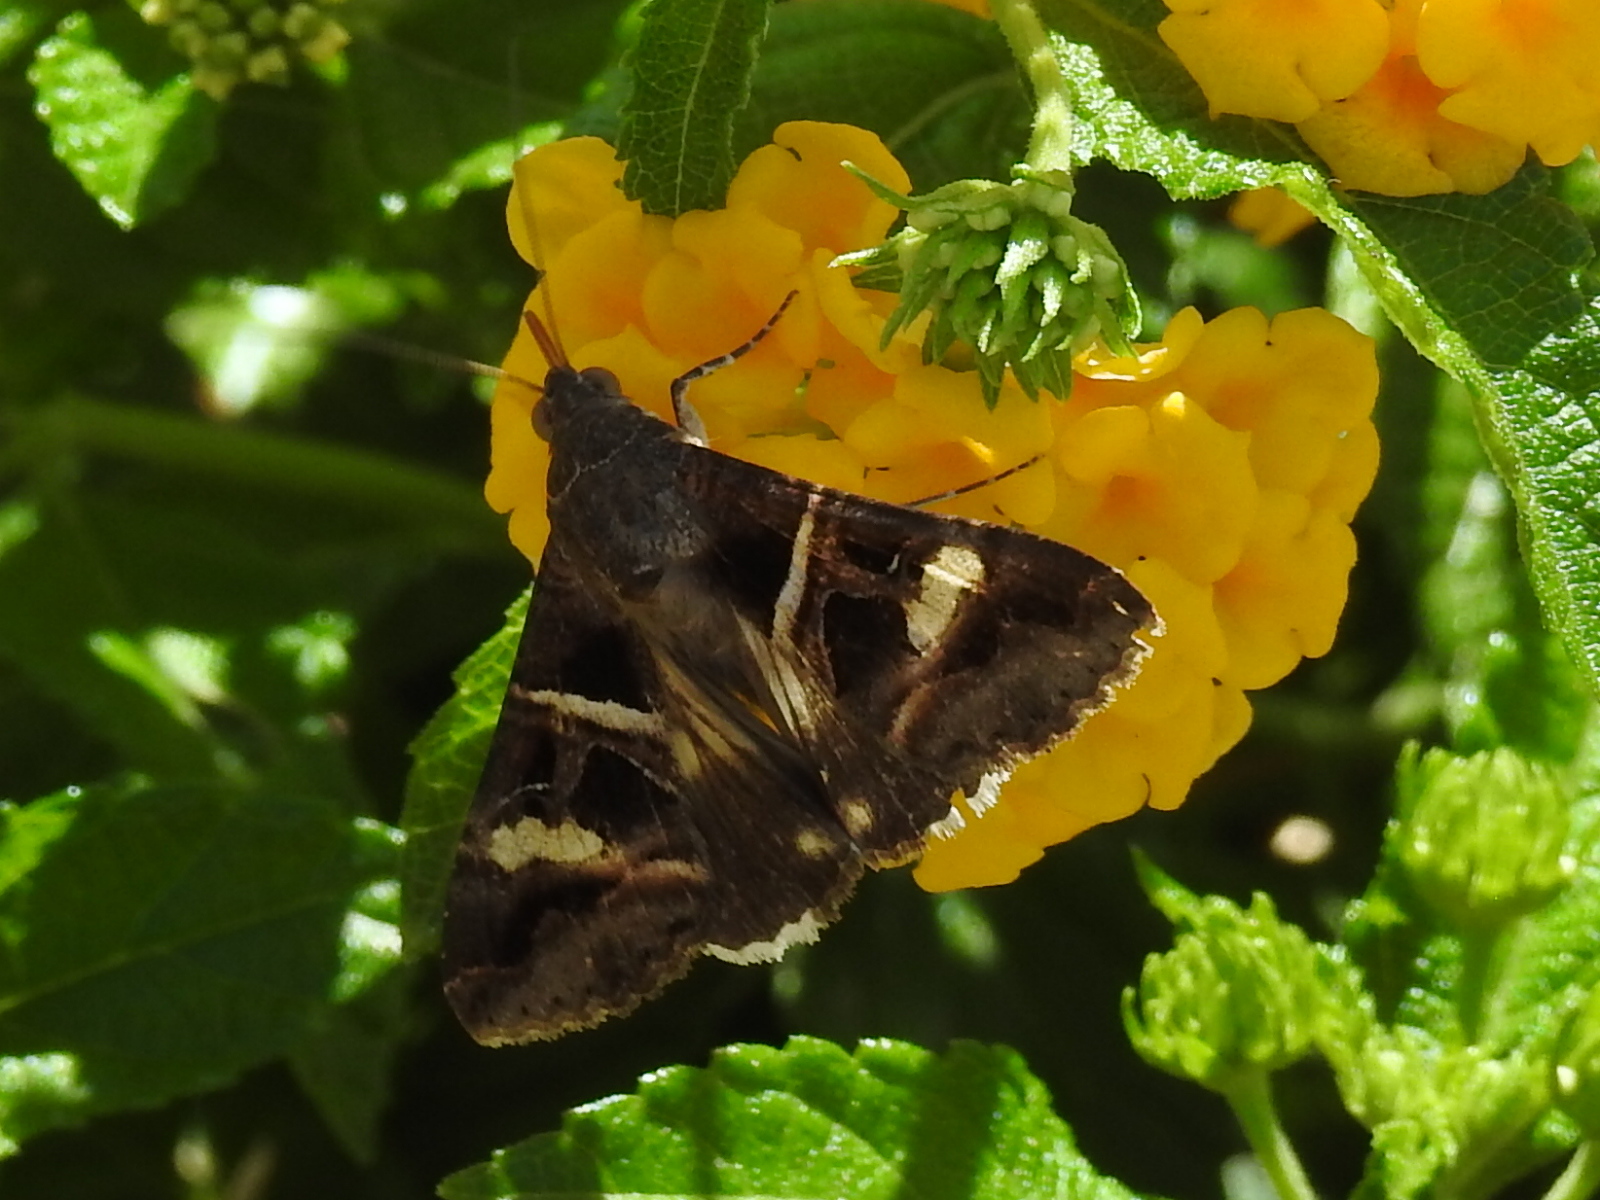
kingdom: Animalia
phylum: Arthropoda
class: Insecta
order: Lepidoptera
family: Erebidae
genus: Melipotis
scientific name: Melipotis perpendicularis
